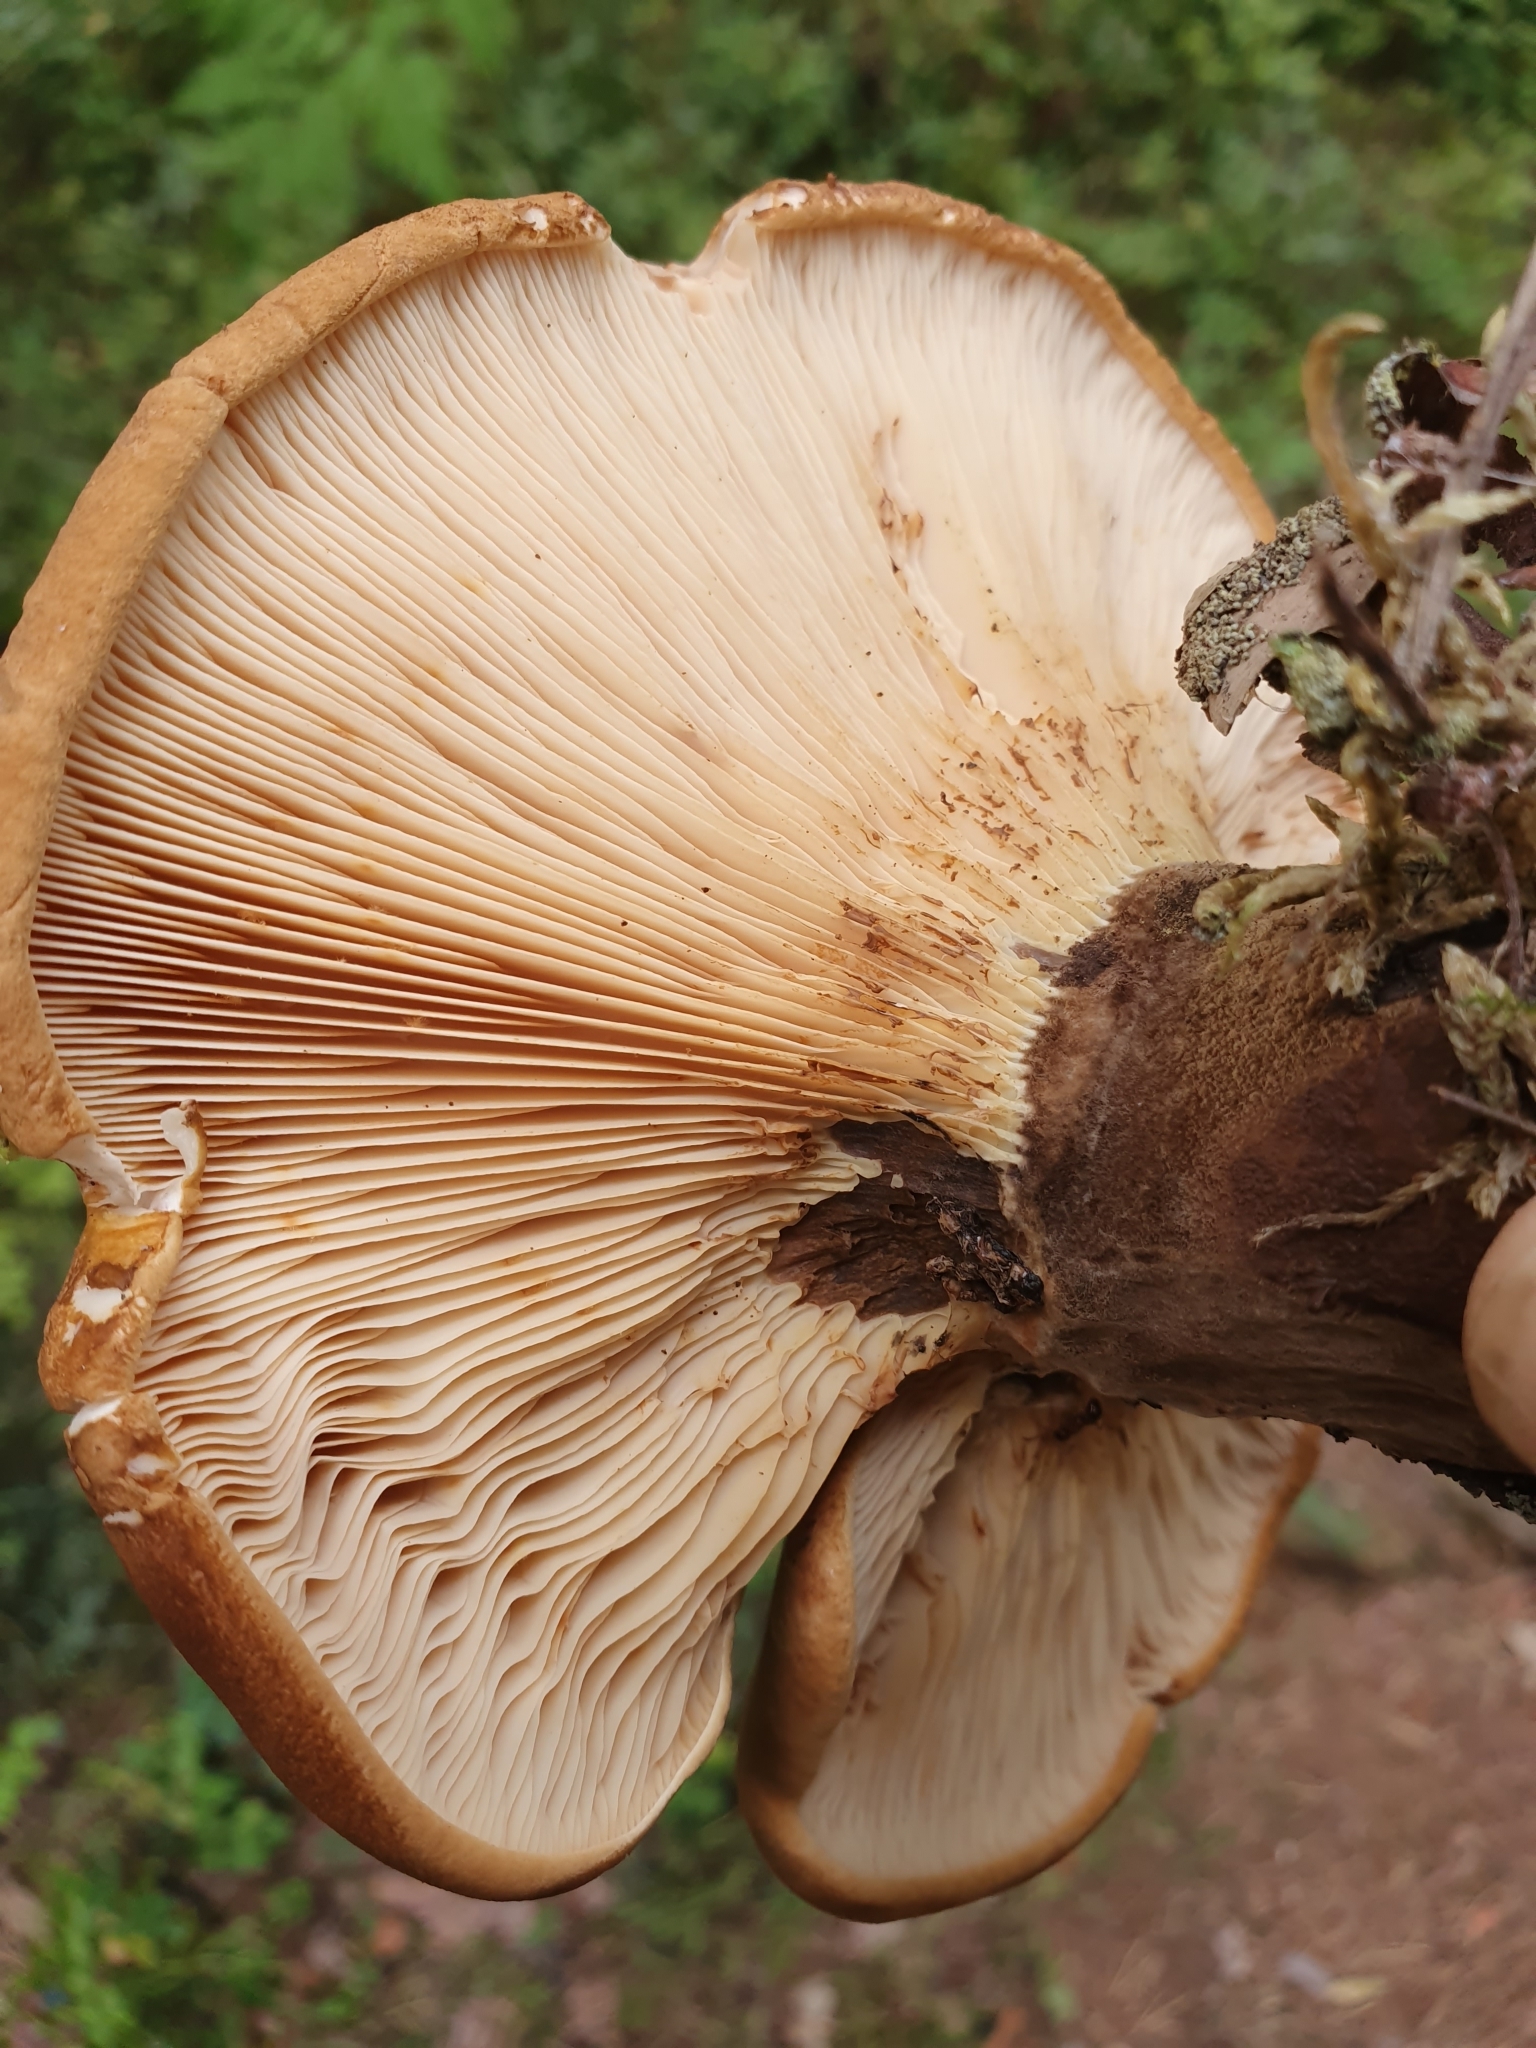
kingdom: Fungi
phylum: Basidiomycota
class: Agaricomycetes
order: Boletales
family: Tapinellaceae
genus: Tapinella
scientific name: Tapinella atrotomentosa
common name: Velvet rollrim
